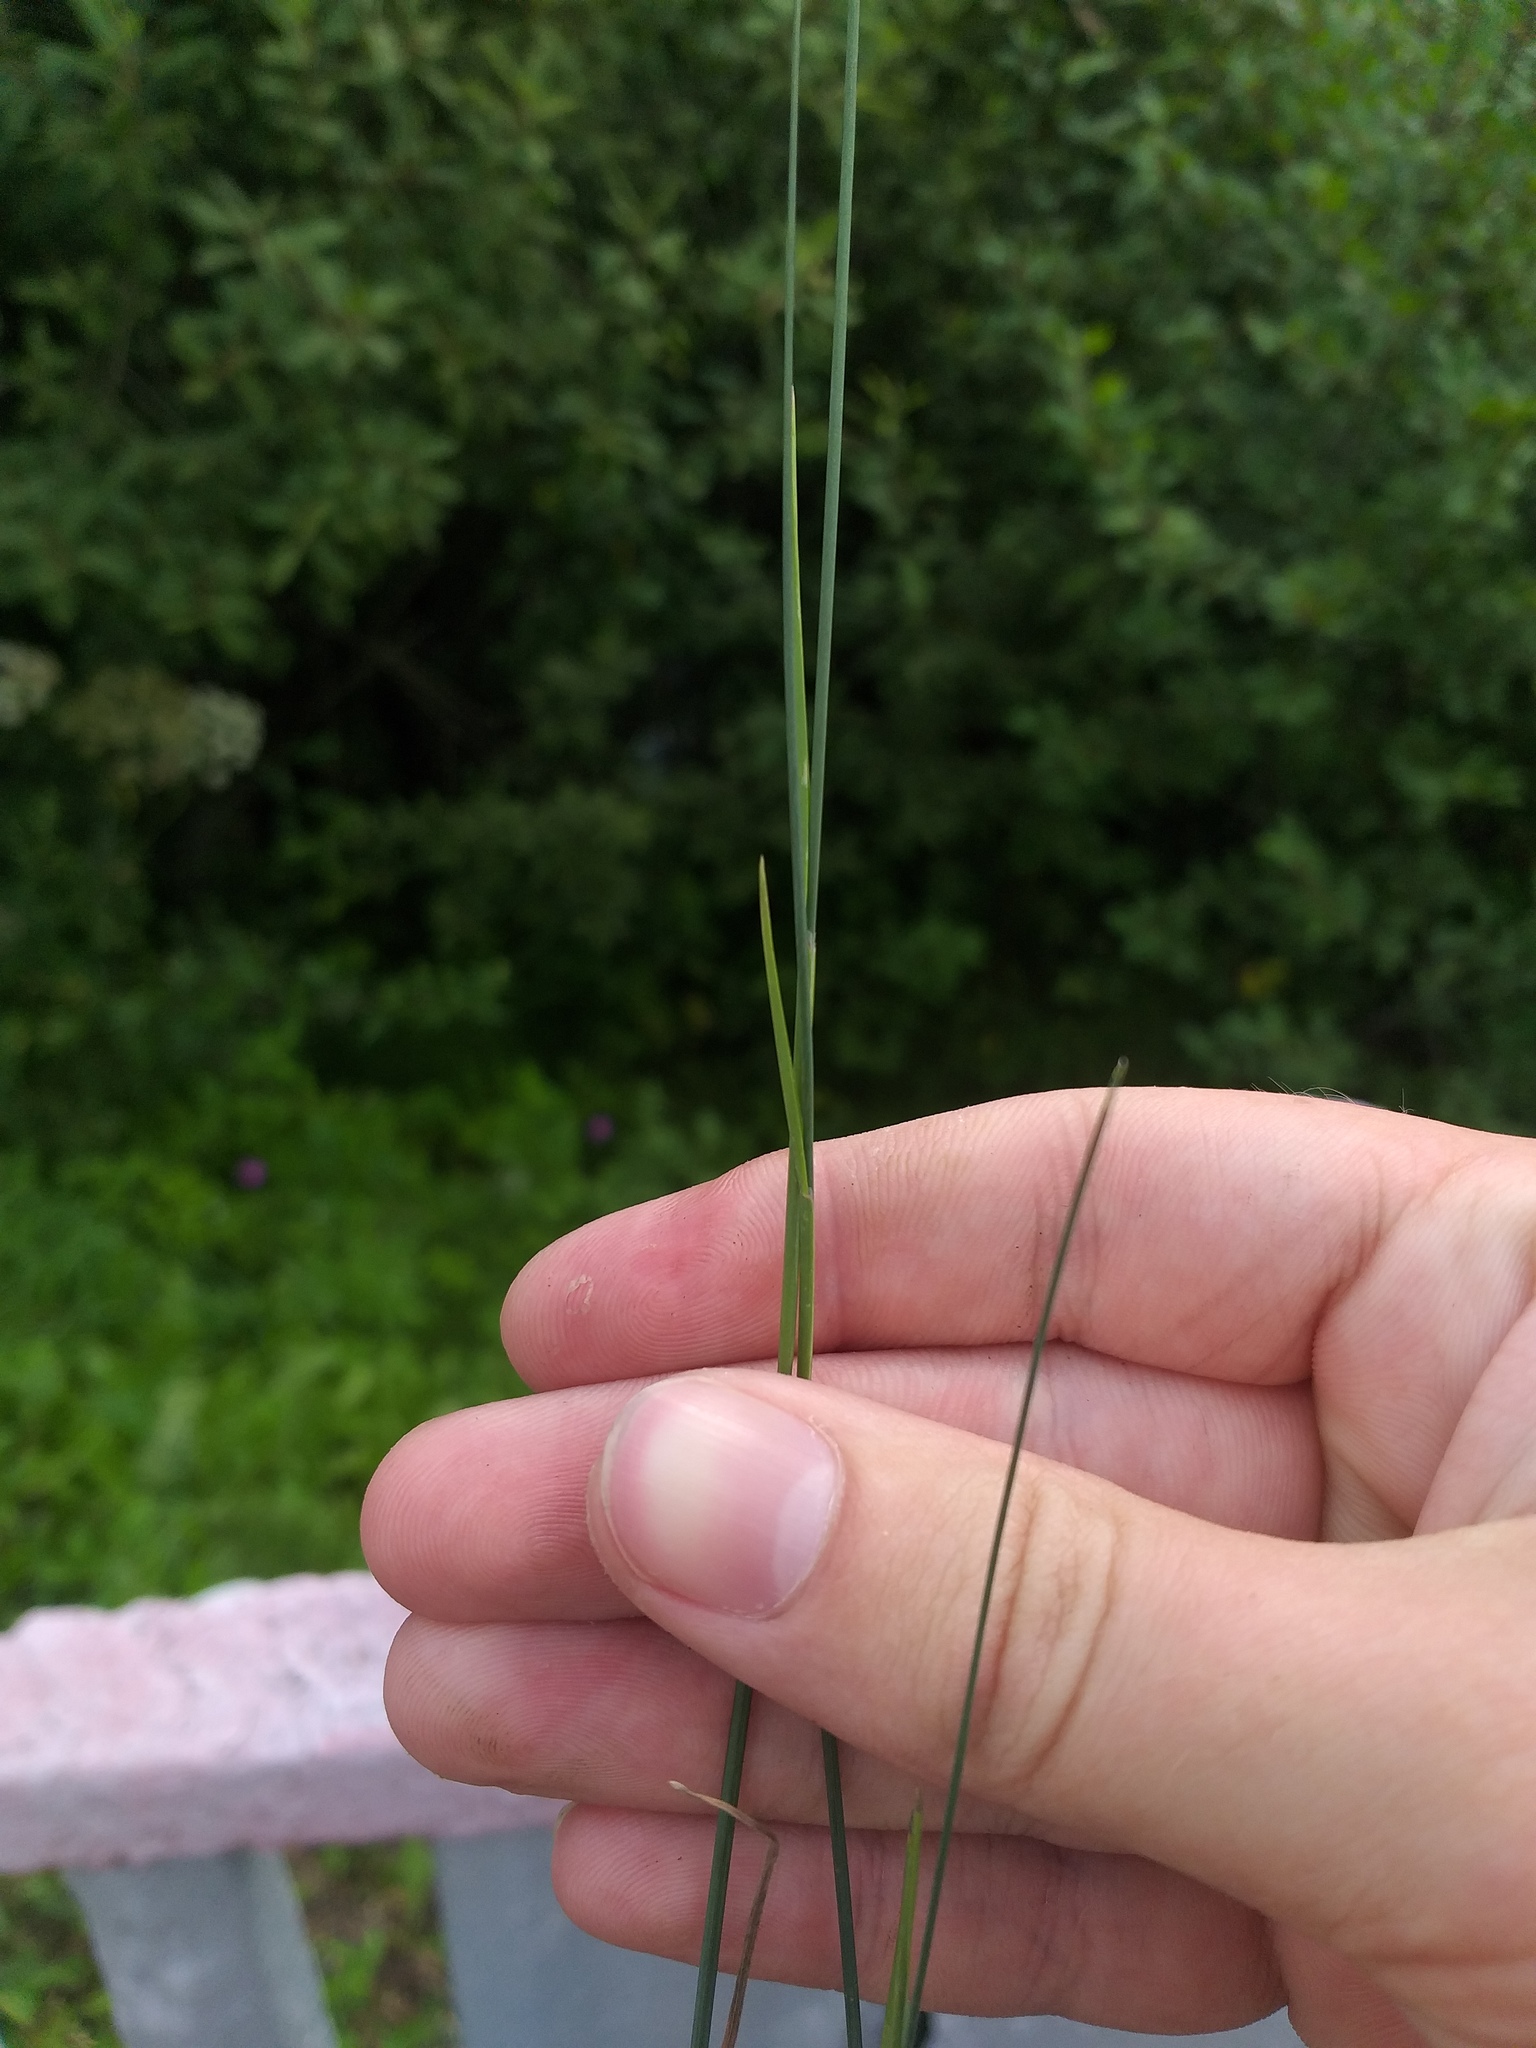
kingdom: Plantae
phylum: Tracheophyta
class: Liliopsida
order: Poales
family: Poaceae
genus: Poa
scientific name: Poa compressa
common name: Canada bluegrass
